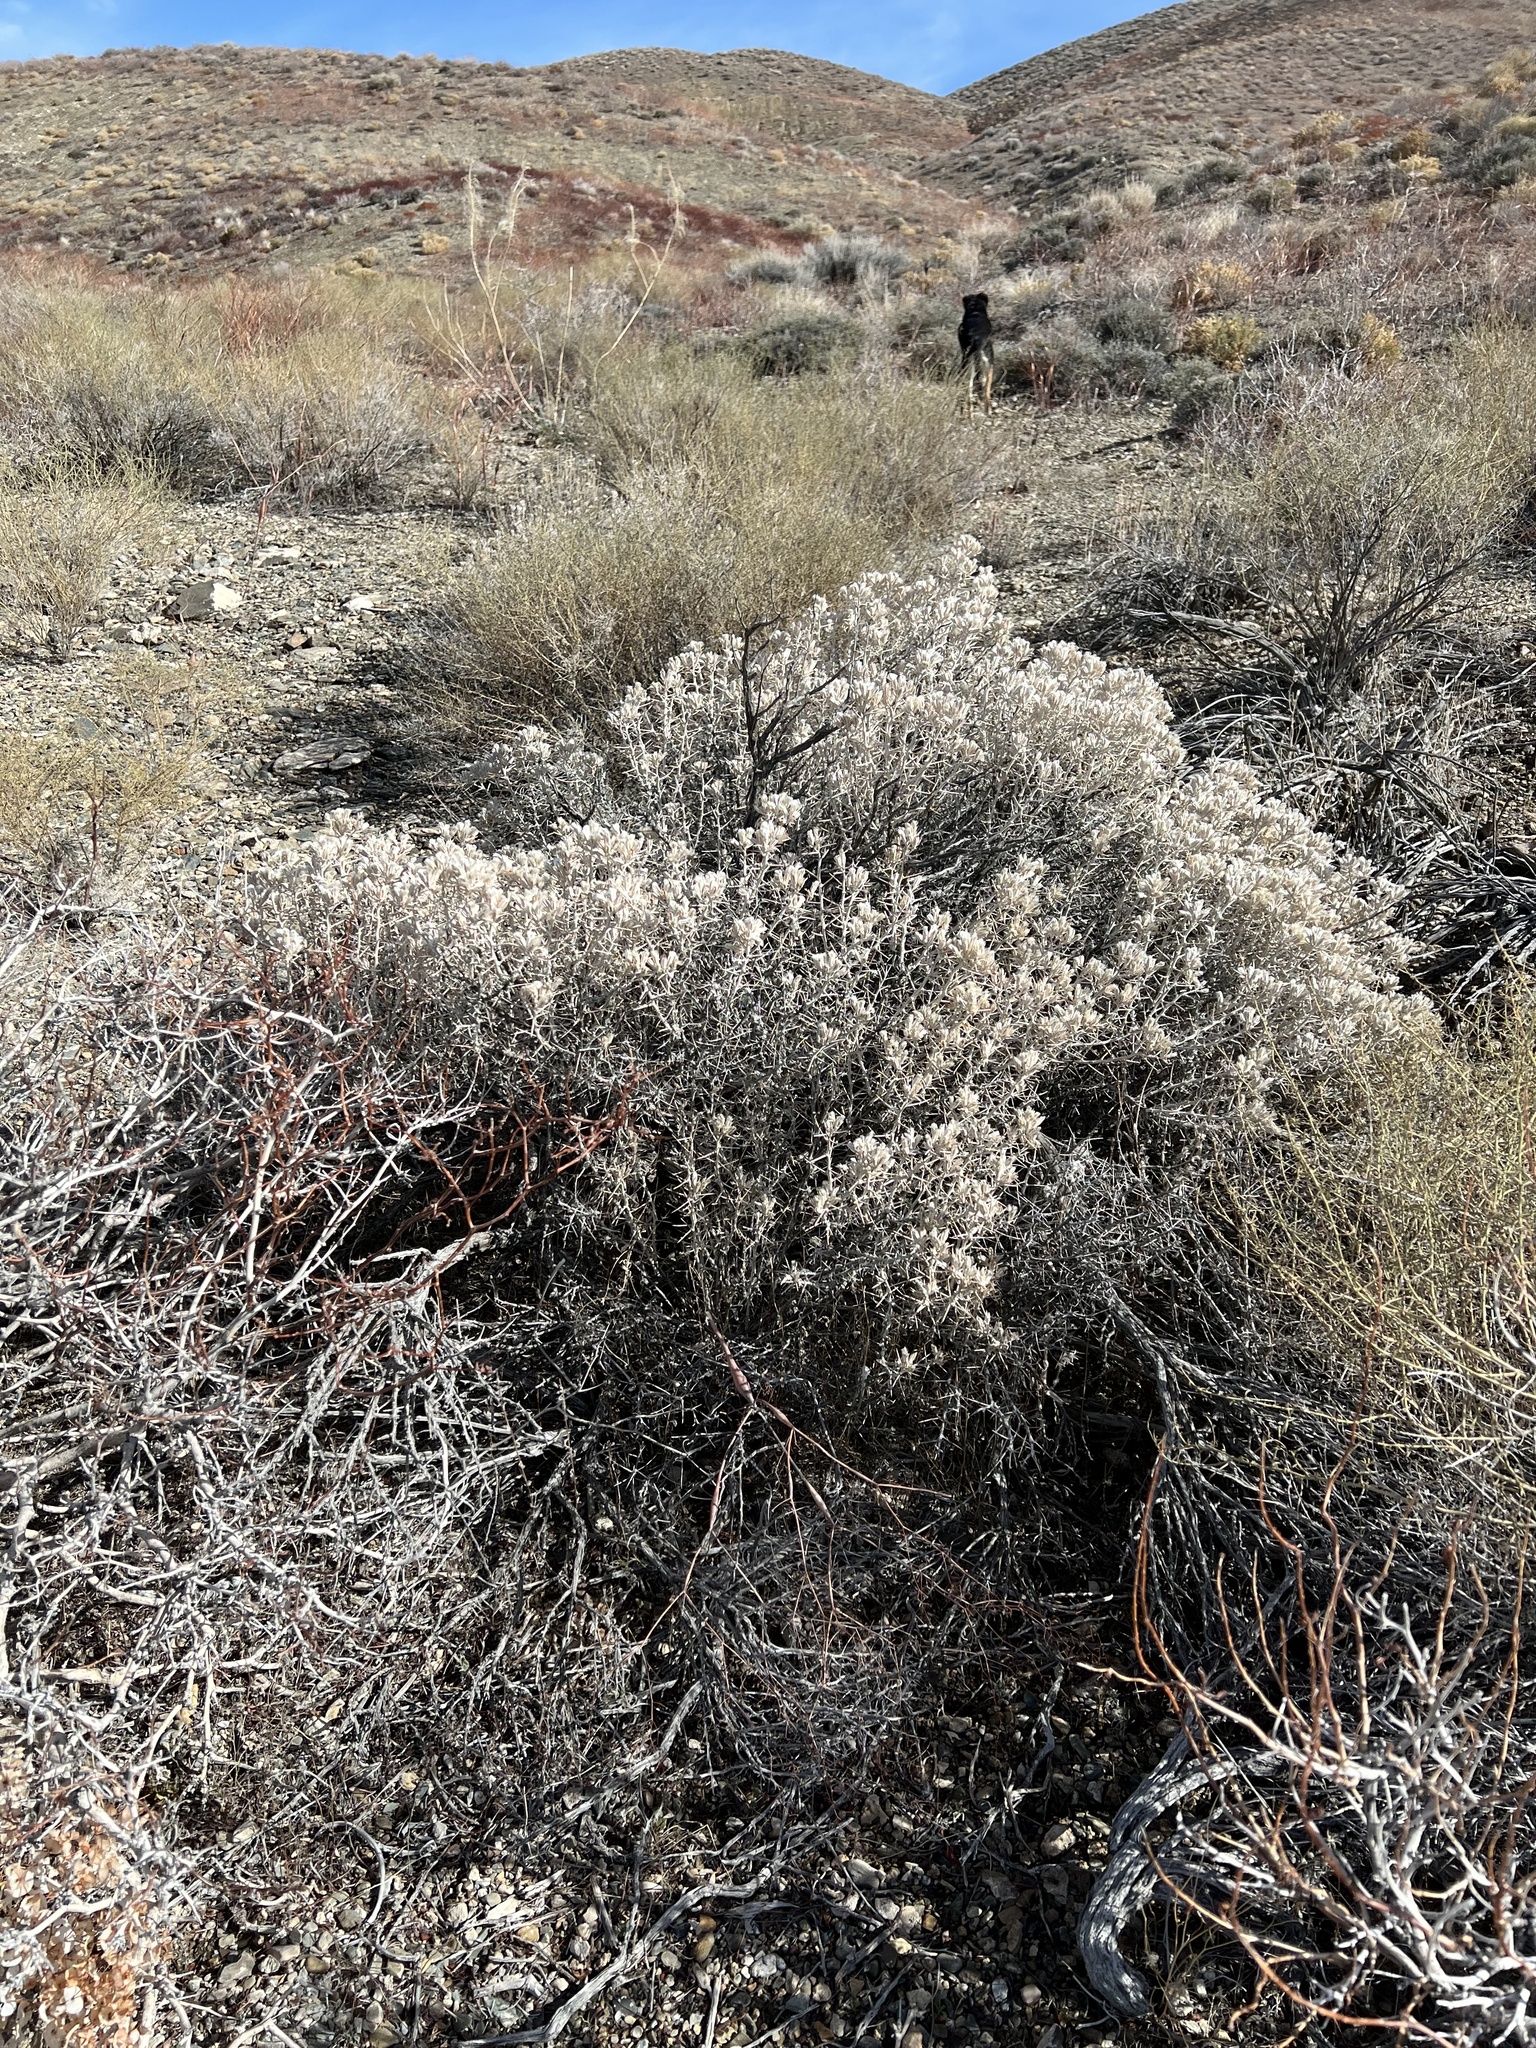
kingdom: Plantae
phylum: Tracheophyta
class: Magnoliopsida
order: Asterales
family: Asteraceae
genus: Tetradymia
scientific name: Tetradymia stenolepis
